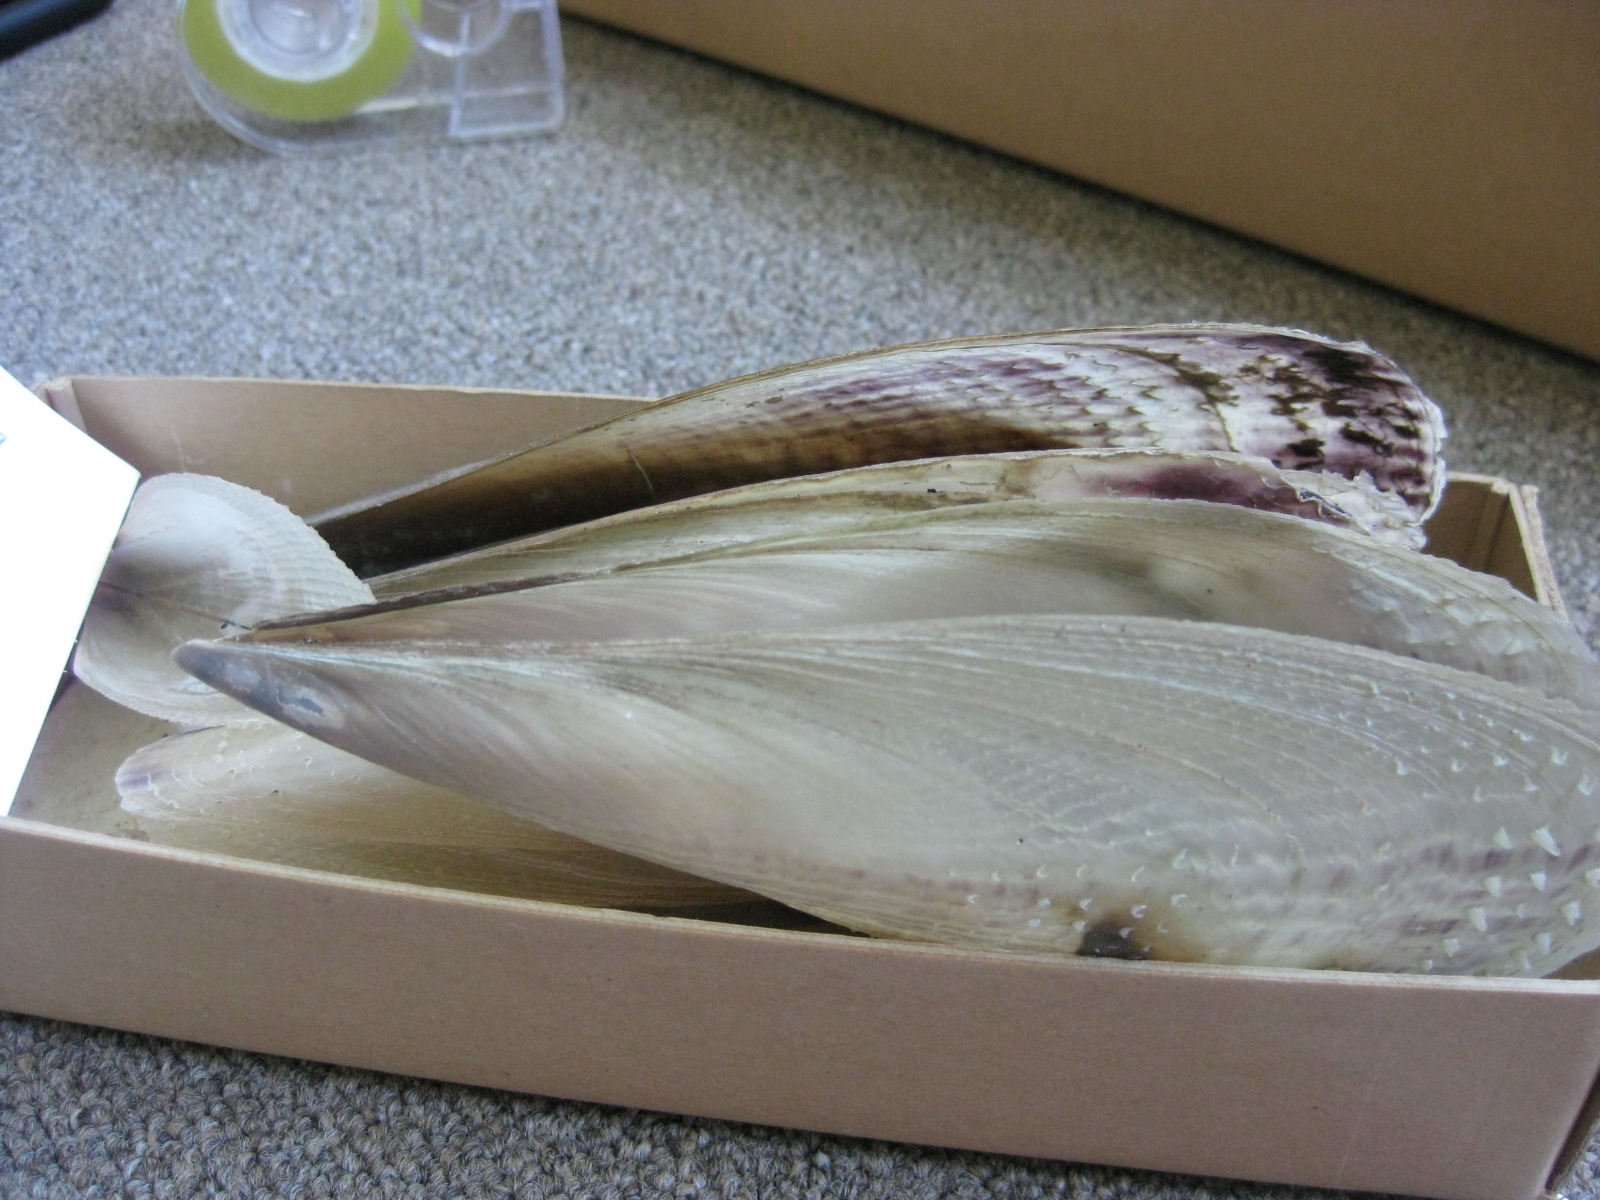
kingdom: Animalia
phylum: Mollusca
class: Bivalvia
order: Ostreida
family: Pinnidae
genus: Atrina
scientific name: Atrina zelandica
